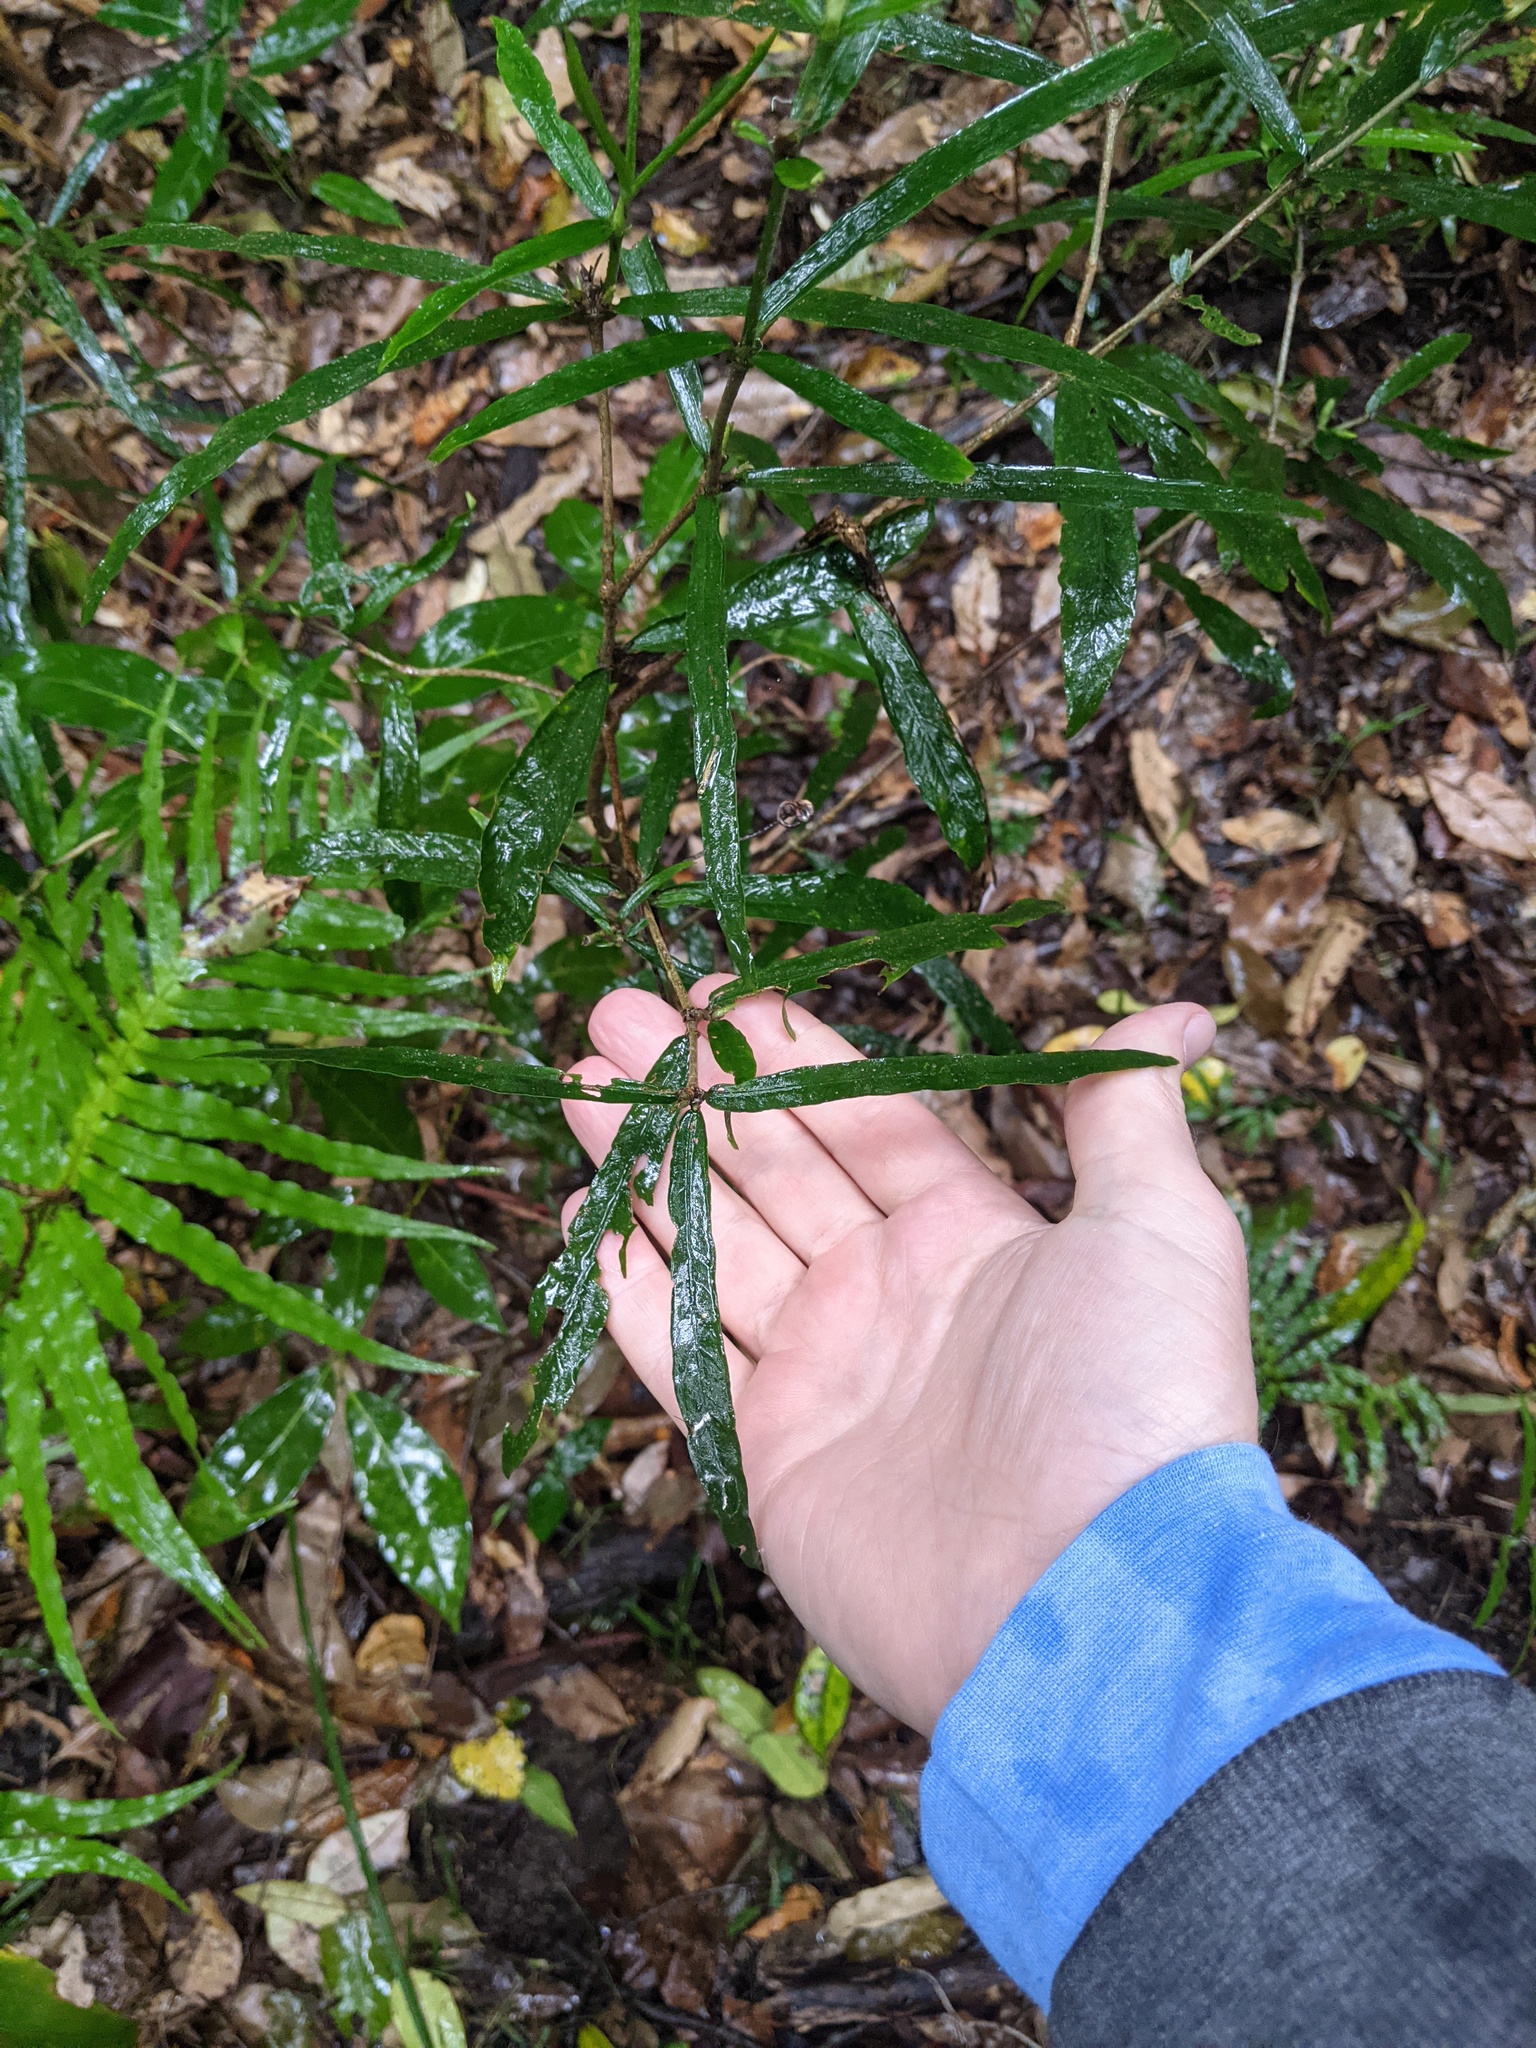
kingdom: Plantae
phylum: Tracheophyta
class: Magnoliopsida
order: Gentianales
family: Rubiaceae
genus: Atractocarpus
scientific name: Atractocarpus chartaceus
